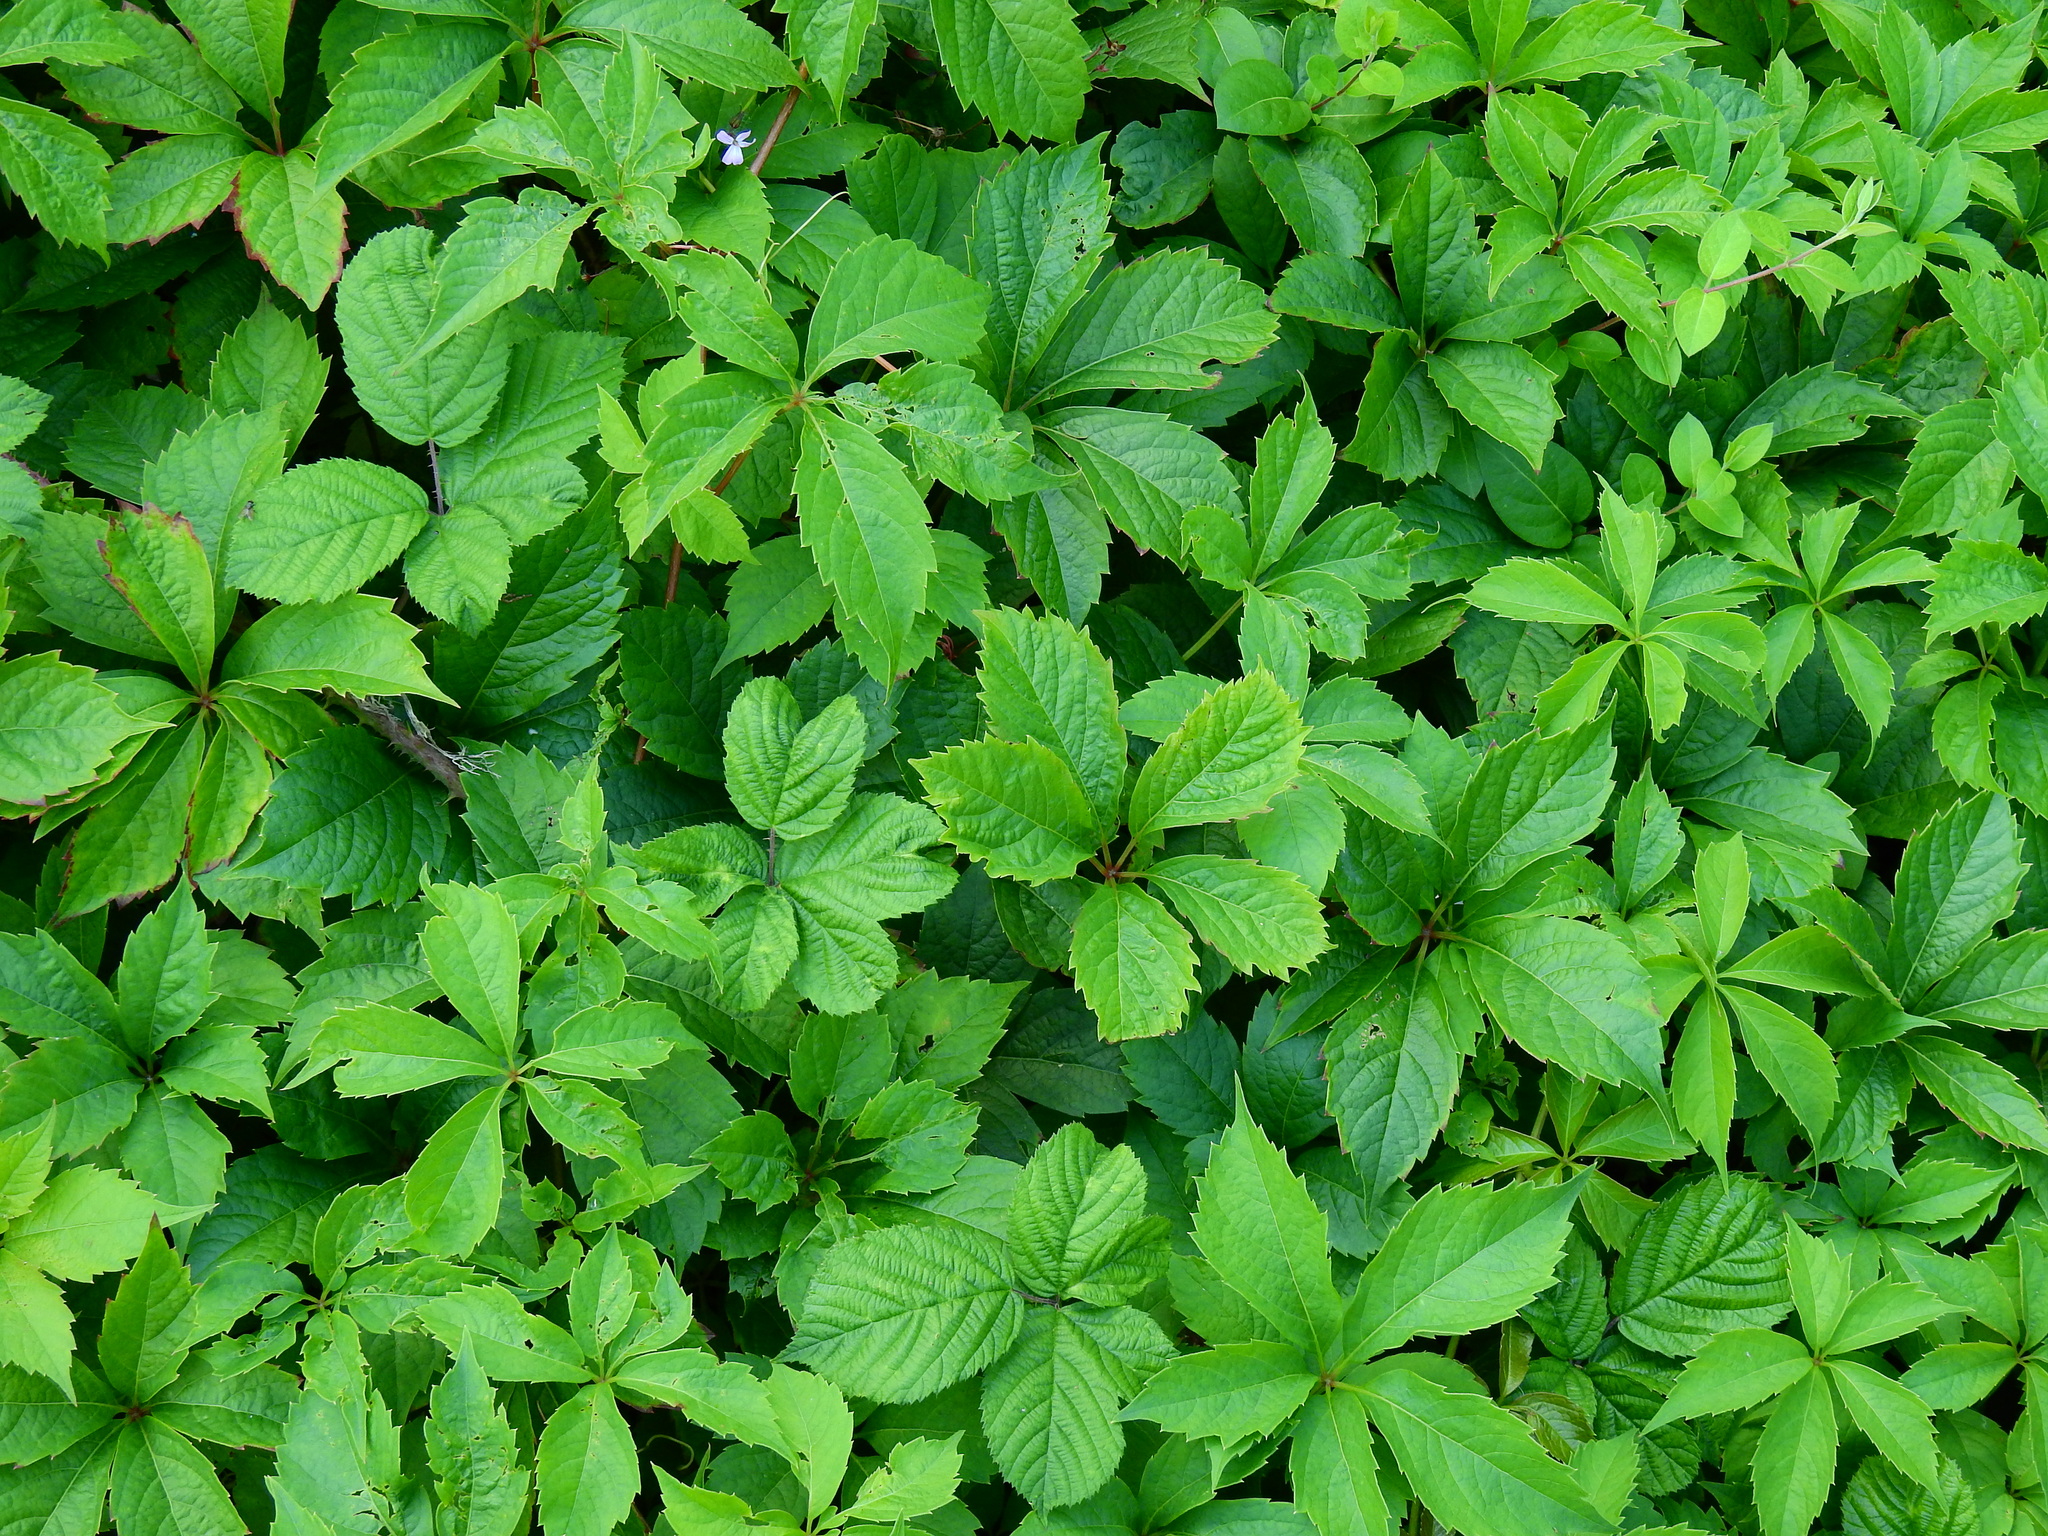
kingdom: Plantae
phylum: Tracheophyta
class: Magnoliopsida
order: Vitales
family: Vitaceae
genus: Parthenocissus
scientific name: Parthenocissus quinquefolia
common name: Virginia-creeper
